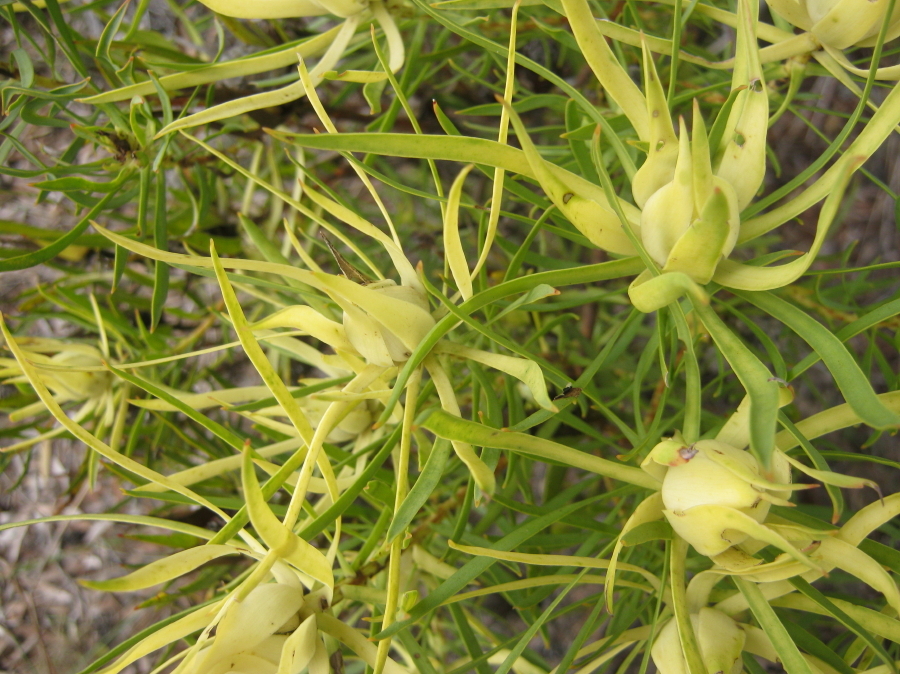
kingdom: Plantae
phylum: Tracheophyta
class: Magnoliopsida
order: Proteales
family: Proteaceae
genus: Leucadendron
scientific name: Leucadendron salignum
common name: Common sunshine conebush
